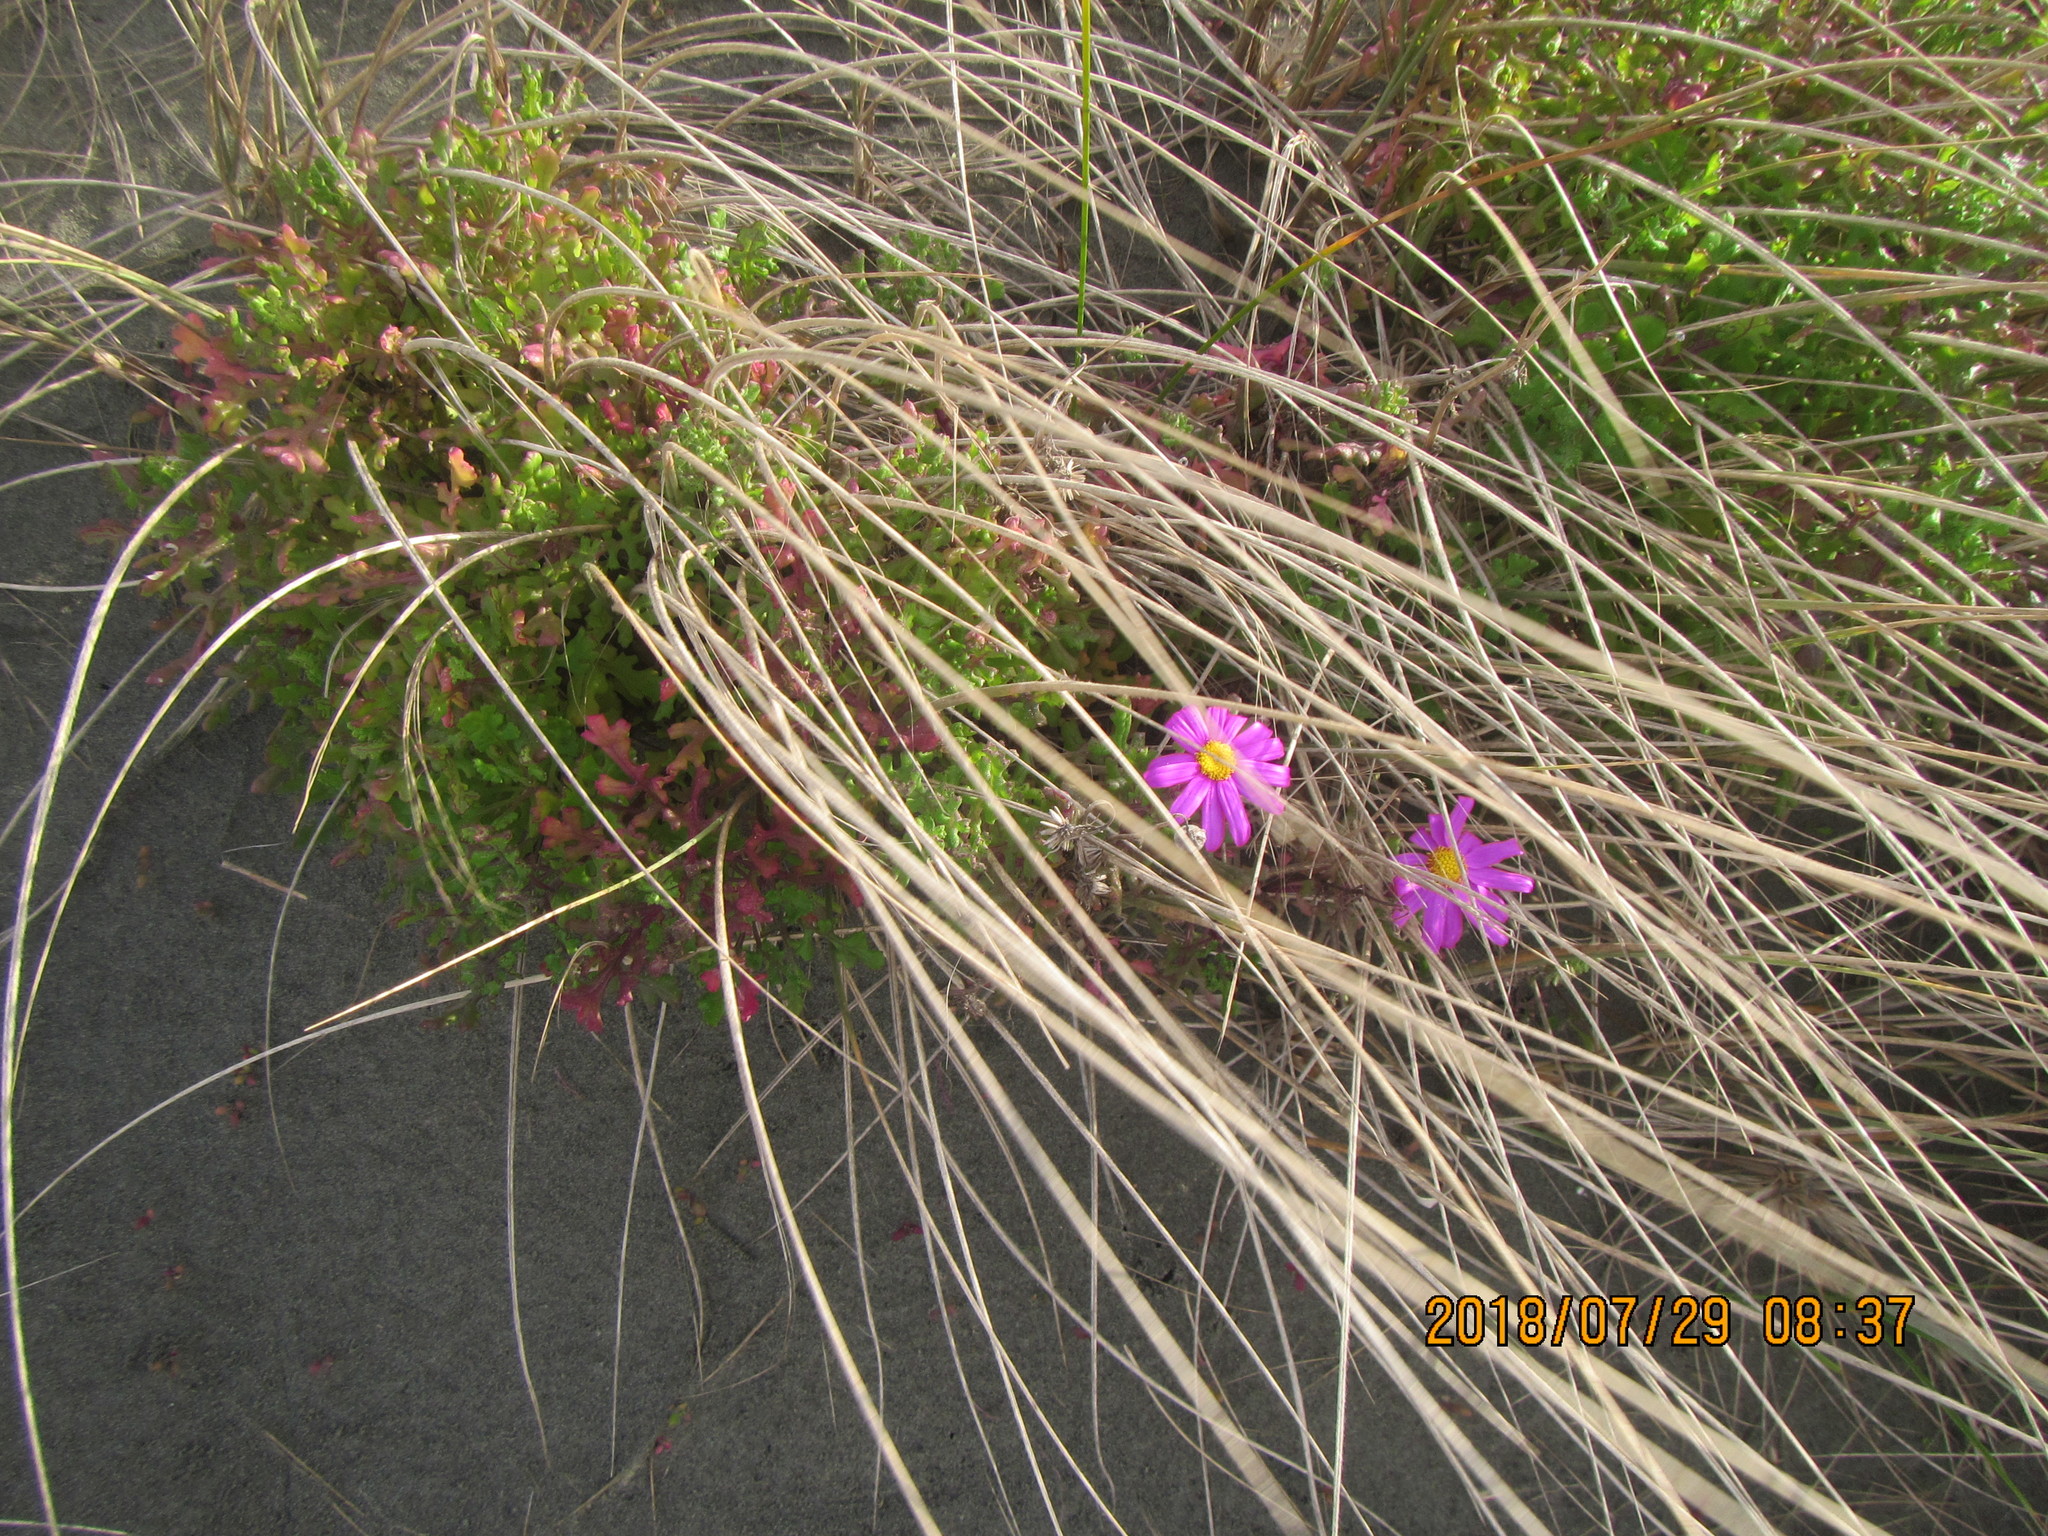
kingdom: Plantae
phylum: Tracheophyta
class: Magnoliopsida
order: Asterales
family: Asteraceae
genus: Senecio
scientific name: Senecio elegans
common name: Purple groundsel
